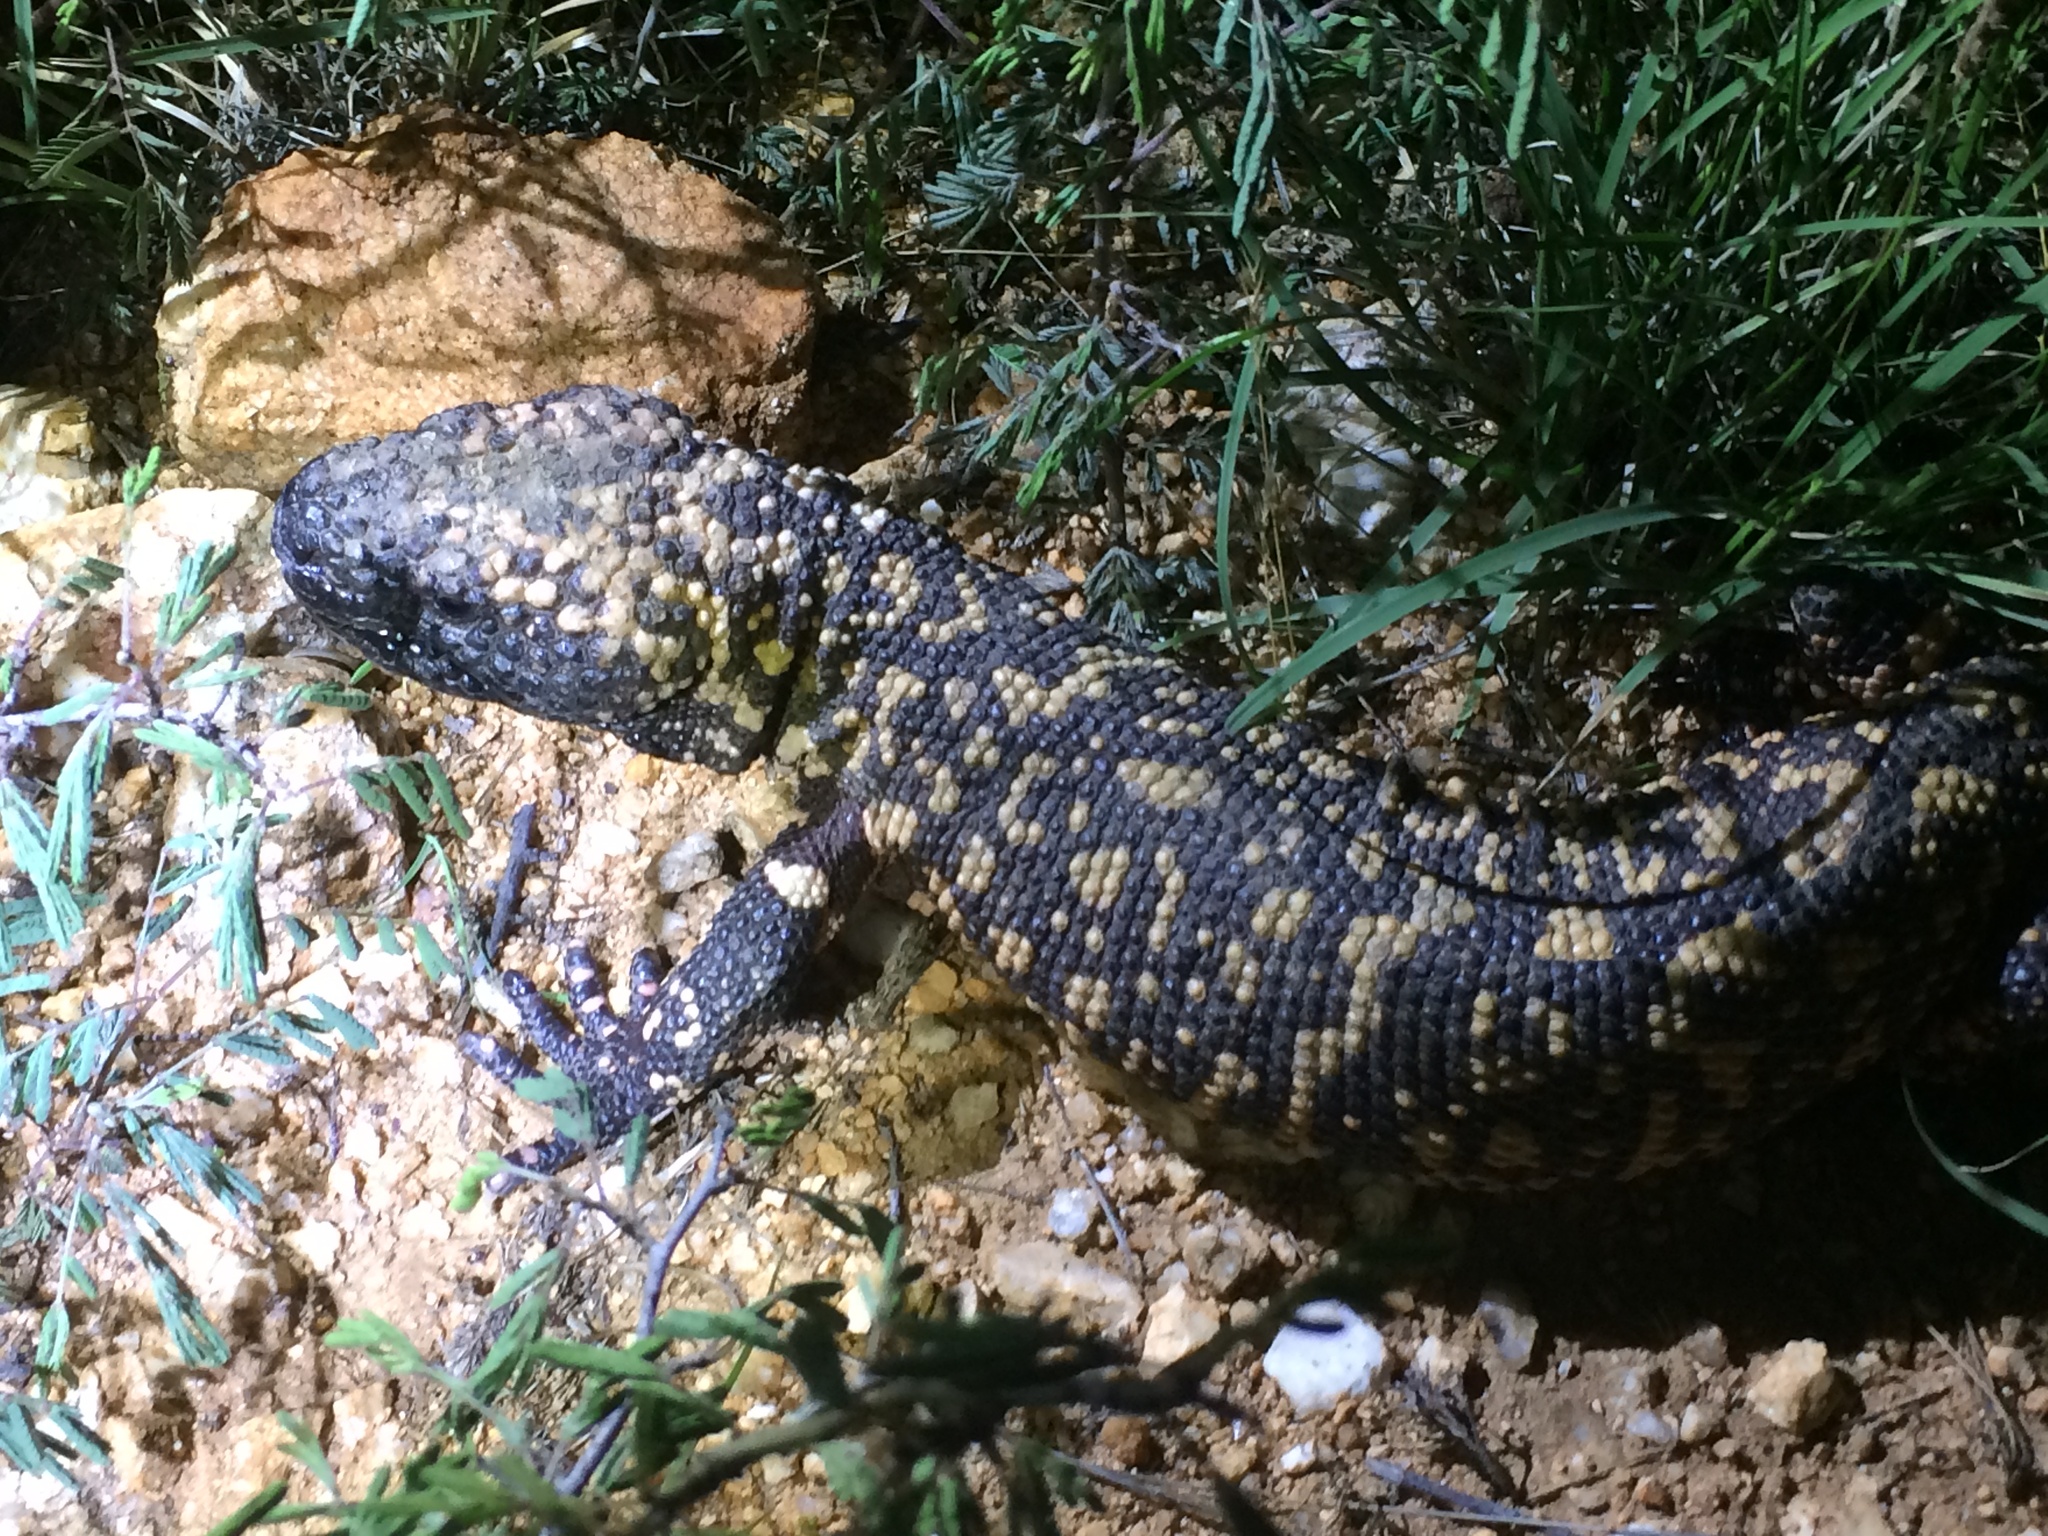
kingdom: Animalia
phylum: Chordata
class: Squamata
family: Helodermatidae
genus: Heloderma
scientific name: Heloderma suspectum
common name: Gila monster
